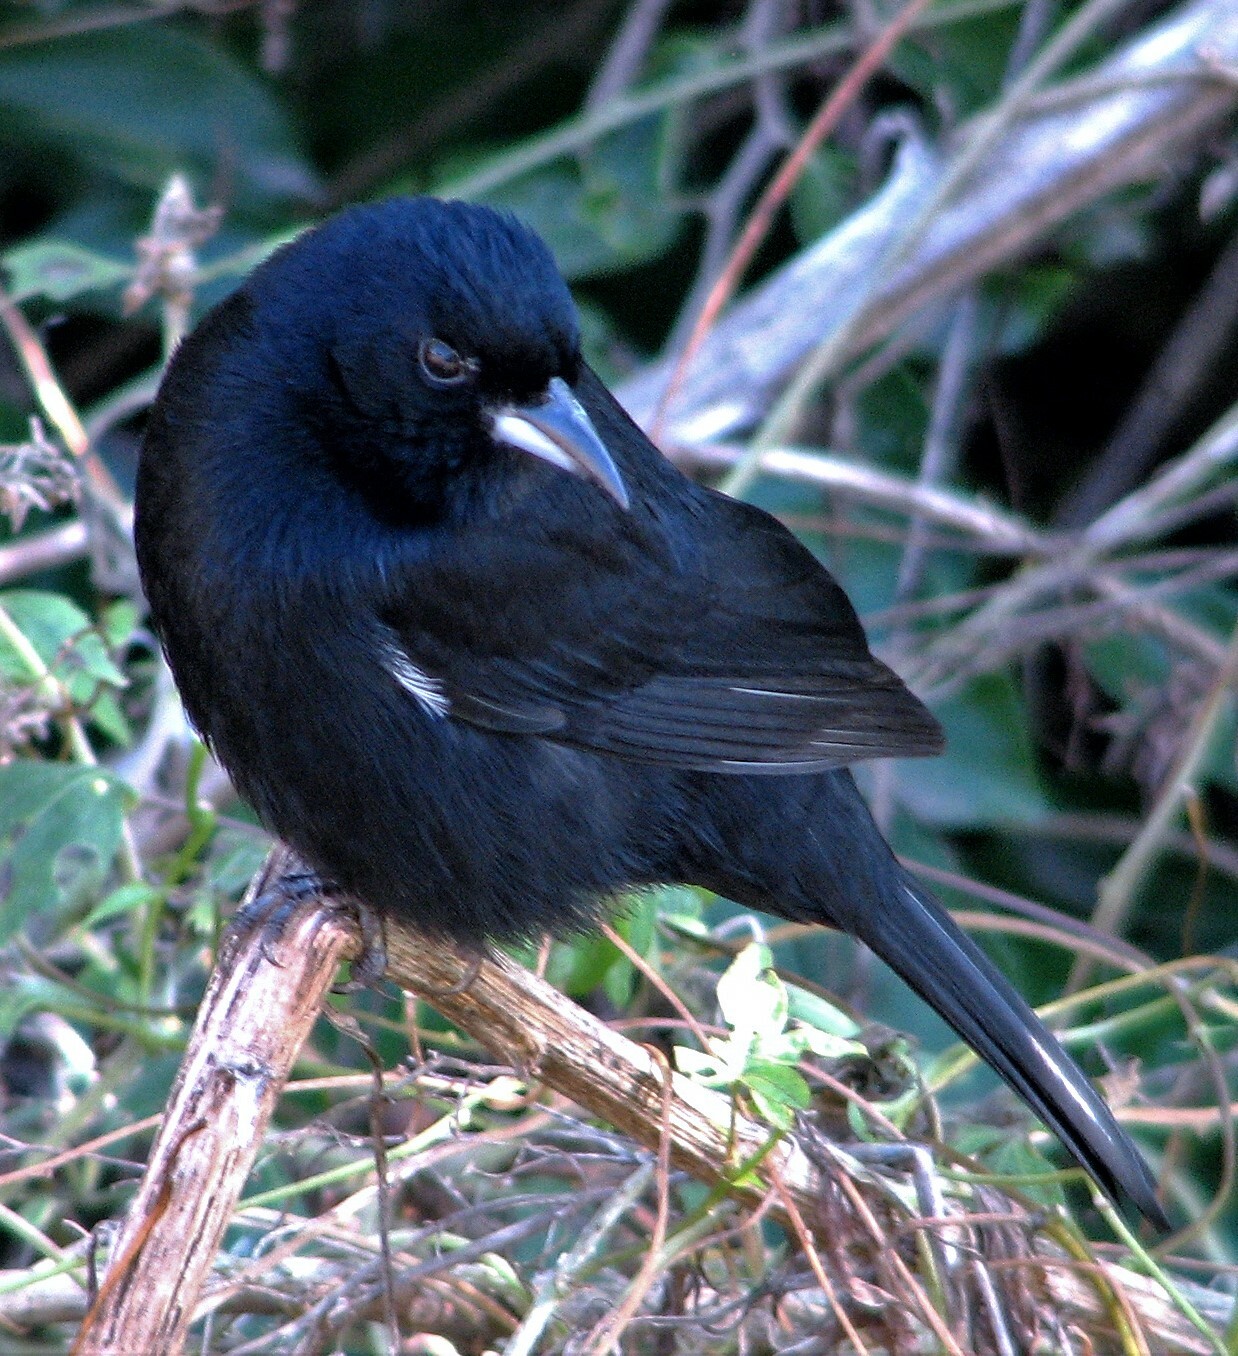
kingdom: Animalia
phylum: Chordata
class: Aves
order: Passeriformes
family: Thraupidae
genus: Tachyphonus
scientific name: Tachyphonus rufus
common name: White-lined tanager
